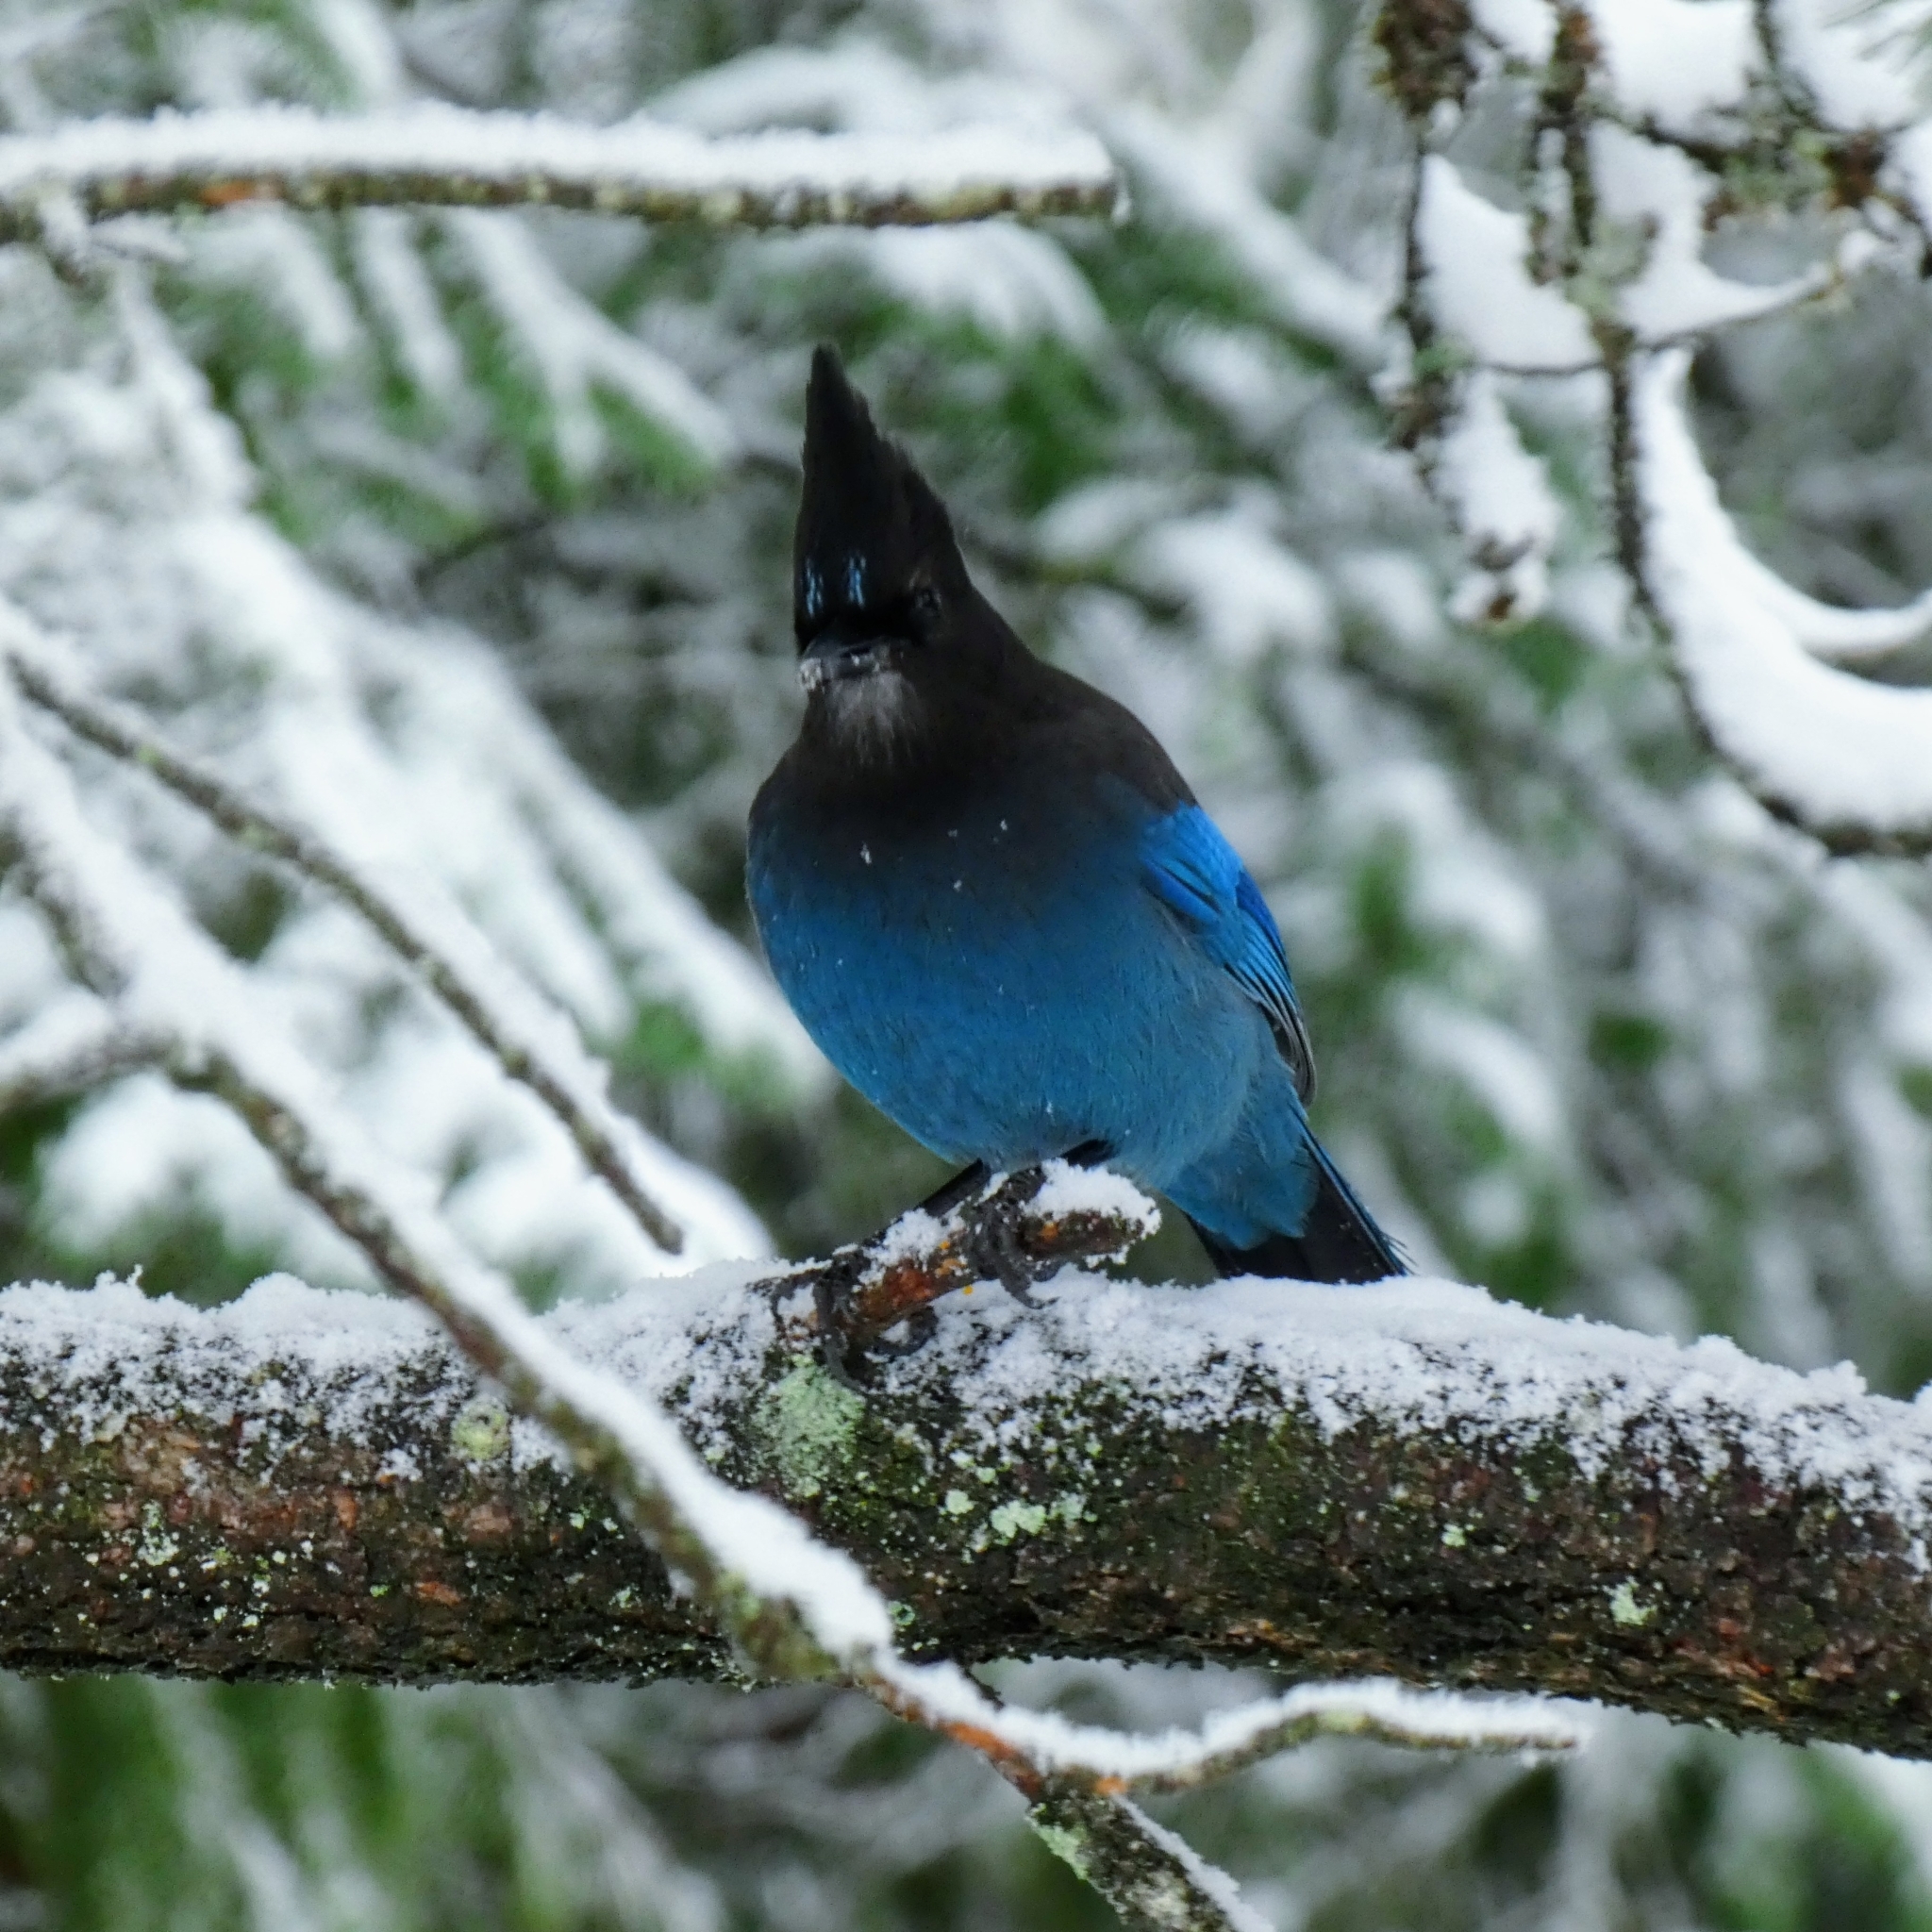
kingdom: Animalia
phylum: Chordata
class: Aves
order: Passeriformes
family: Corvidae
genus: Cyanocitta
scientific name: Cyanocitta stelleri
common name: Steller's jay
